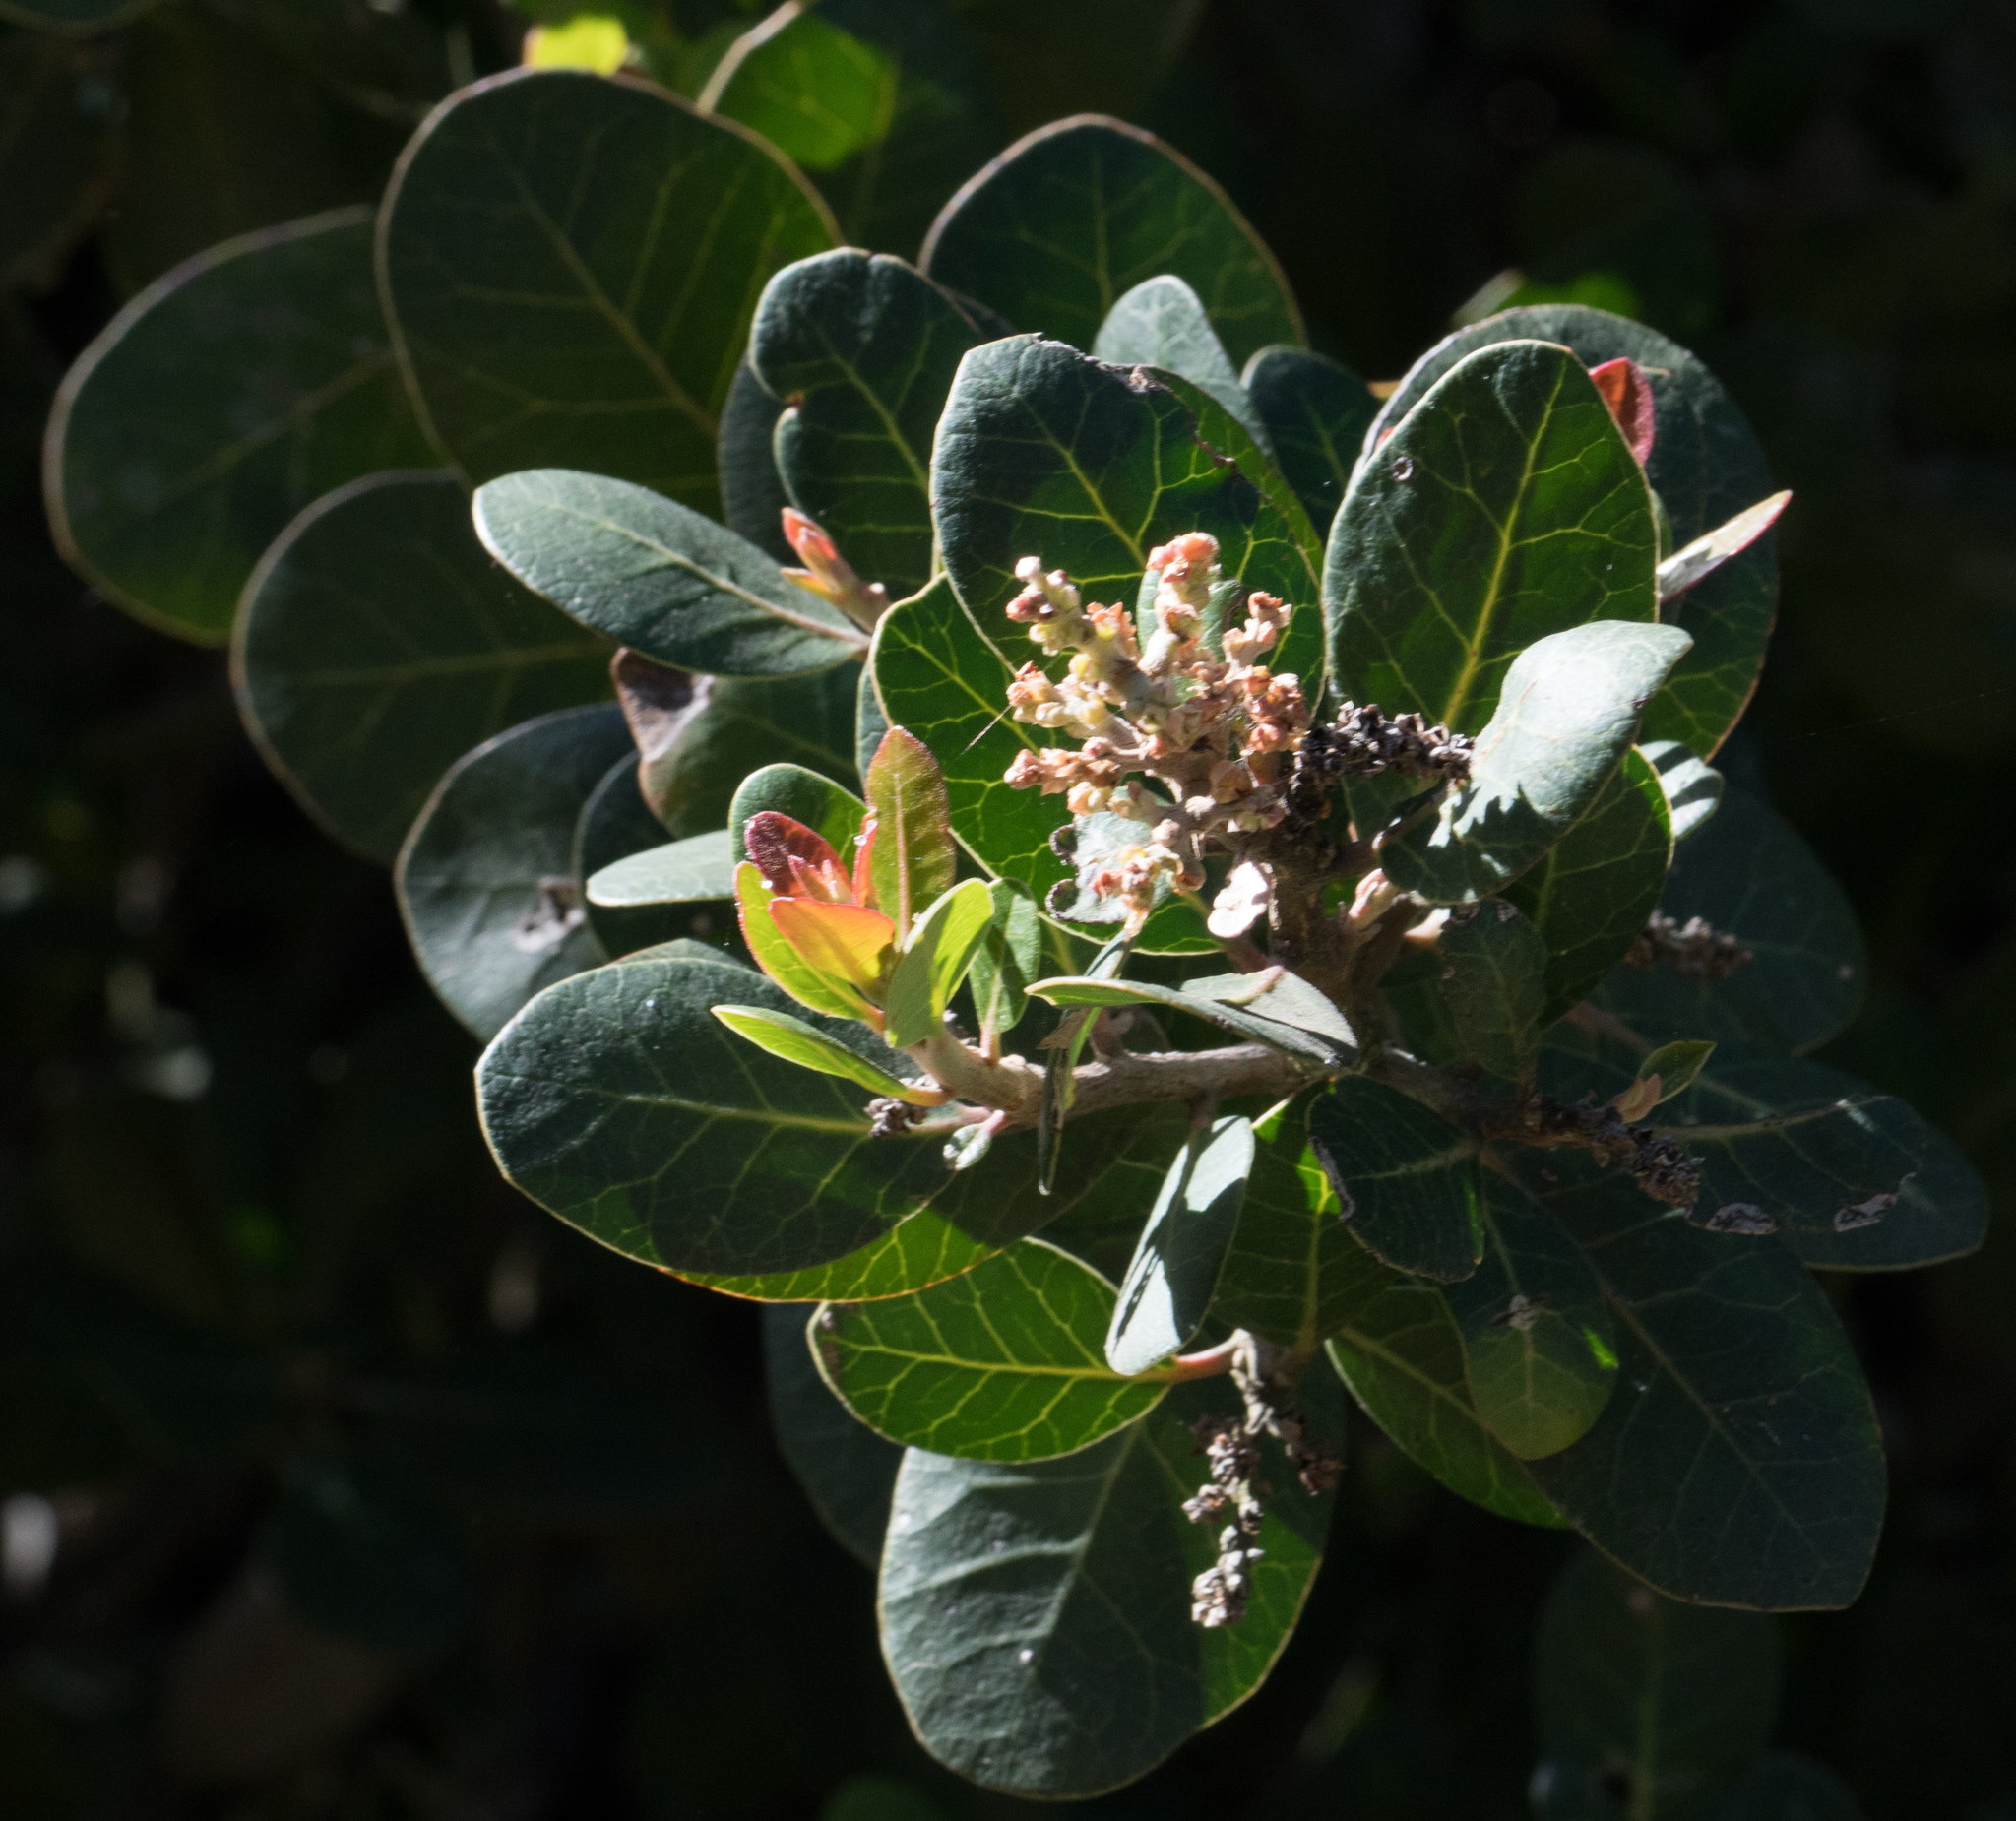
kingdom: Plantae
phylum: Tracheophyta
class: Magnoliopsida
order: Sapindales
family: Anacardiaceae
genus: Rhus
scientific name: Rhus integrifolia
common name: Lemonade sumac
